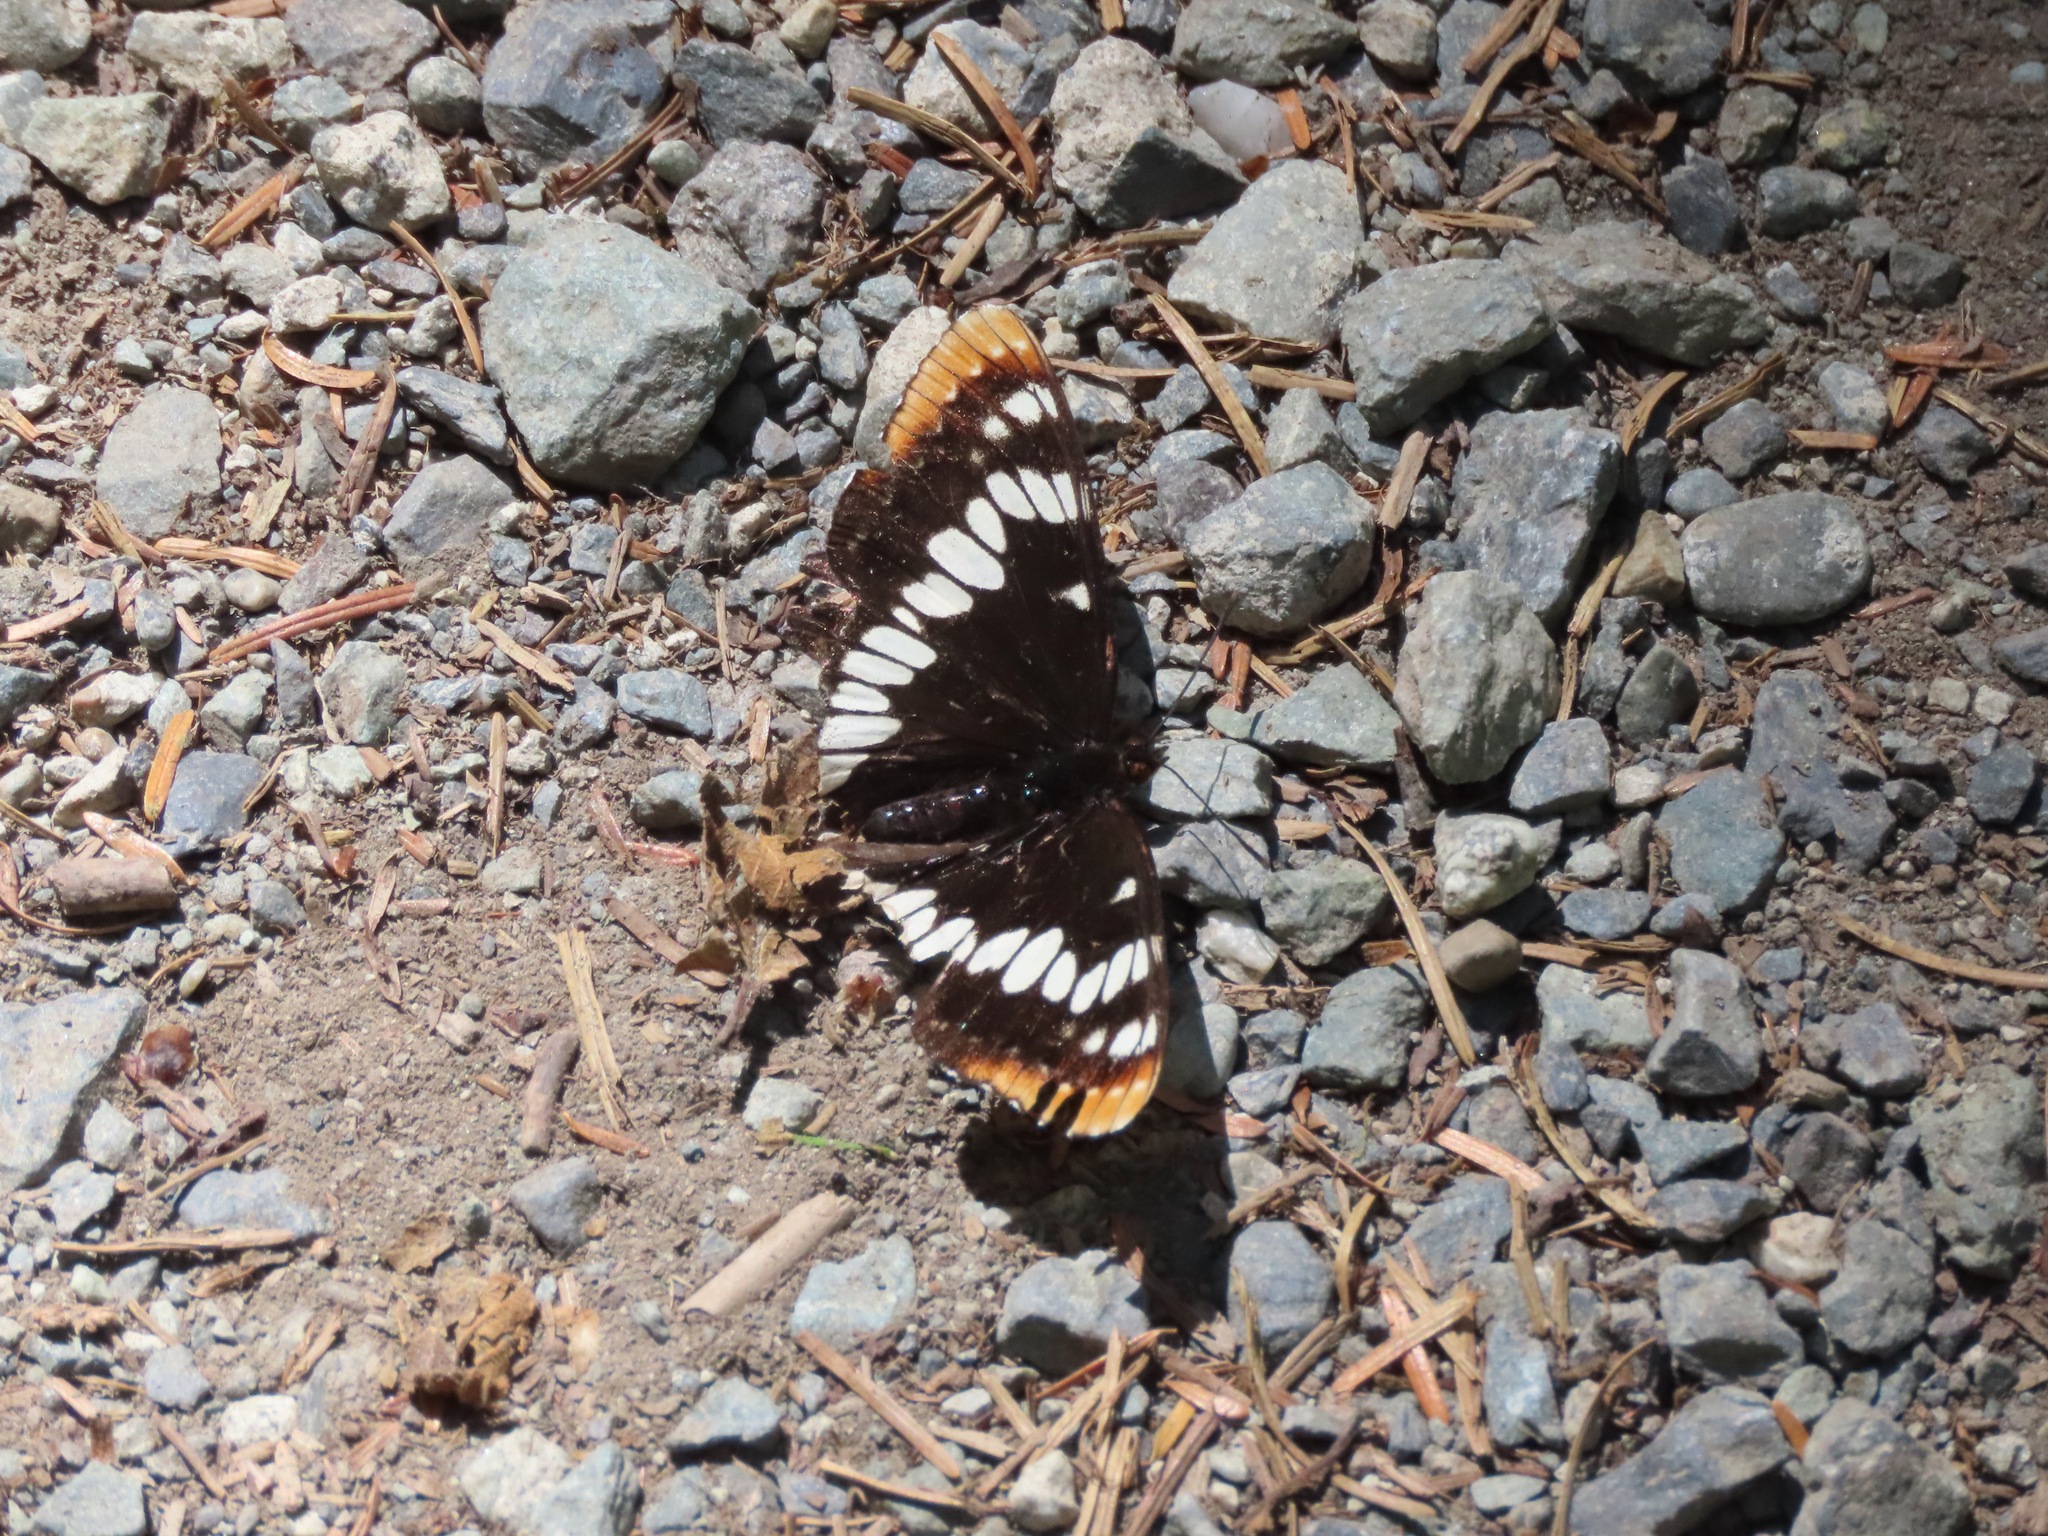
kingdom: Animalia
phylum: Arthropoda
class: Insecta
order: Lepidoptera
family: Nymphalidae
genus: Limenitis
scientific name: Limenitis lorquini
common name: Lorquin's admiral
